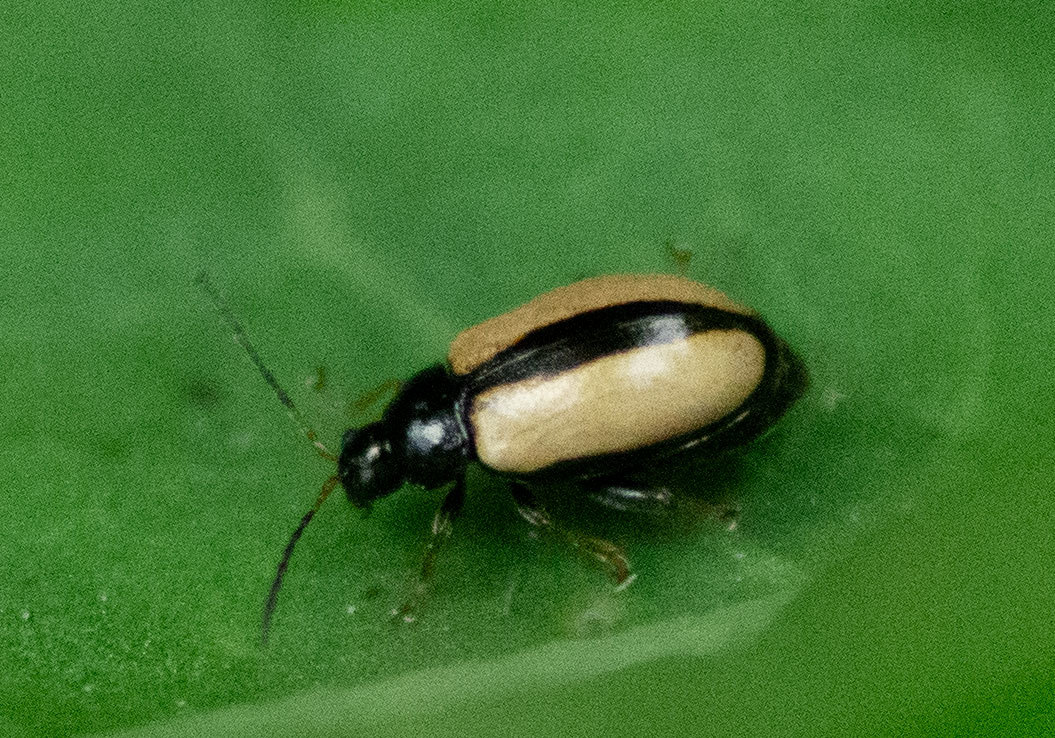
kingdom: Animalia
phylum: Arthropoda
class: Insecta
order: Coleoptera
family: Chrysomelidae
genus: Phyllotreta
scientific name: Phyllotreta armoraciae
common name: Horseradish flea beetle
